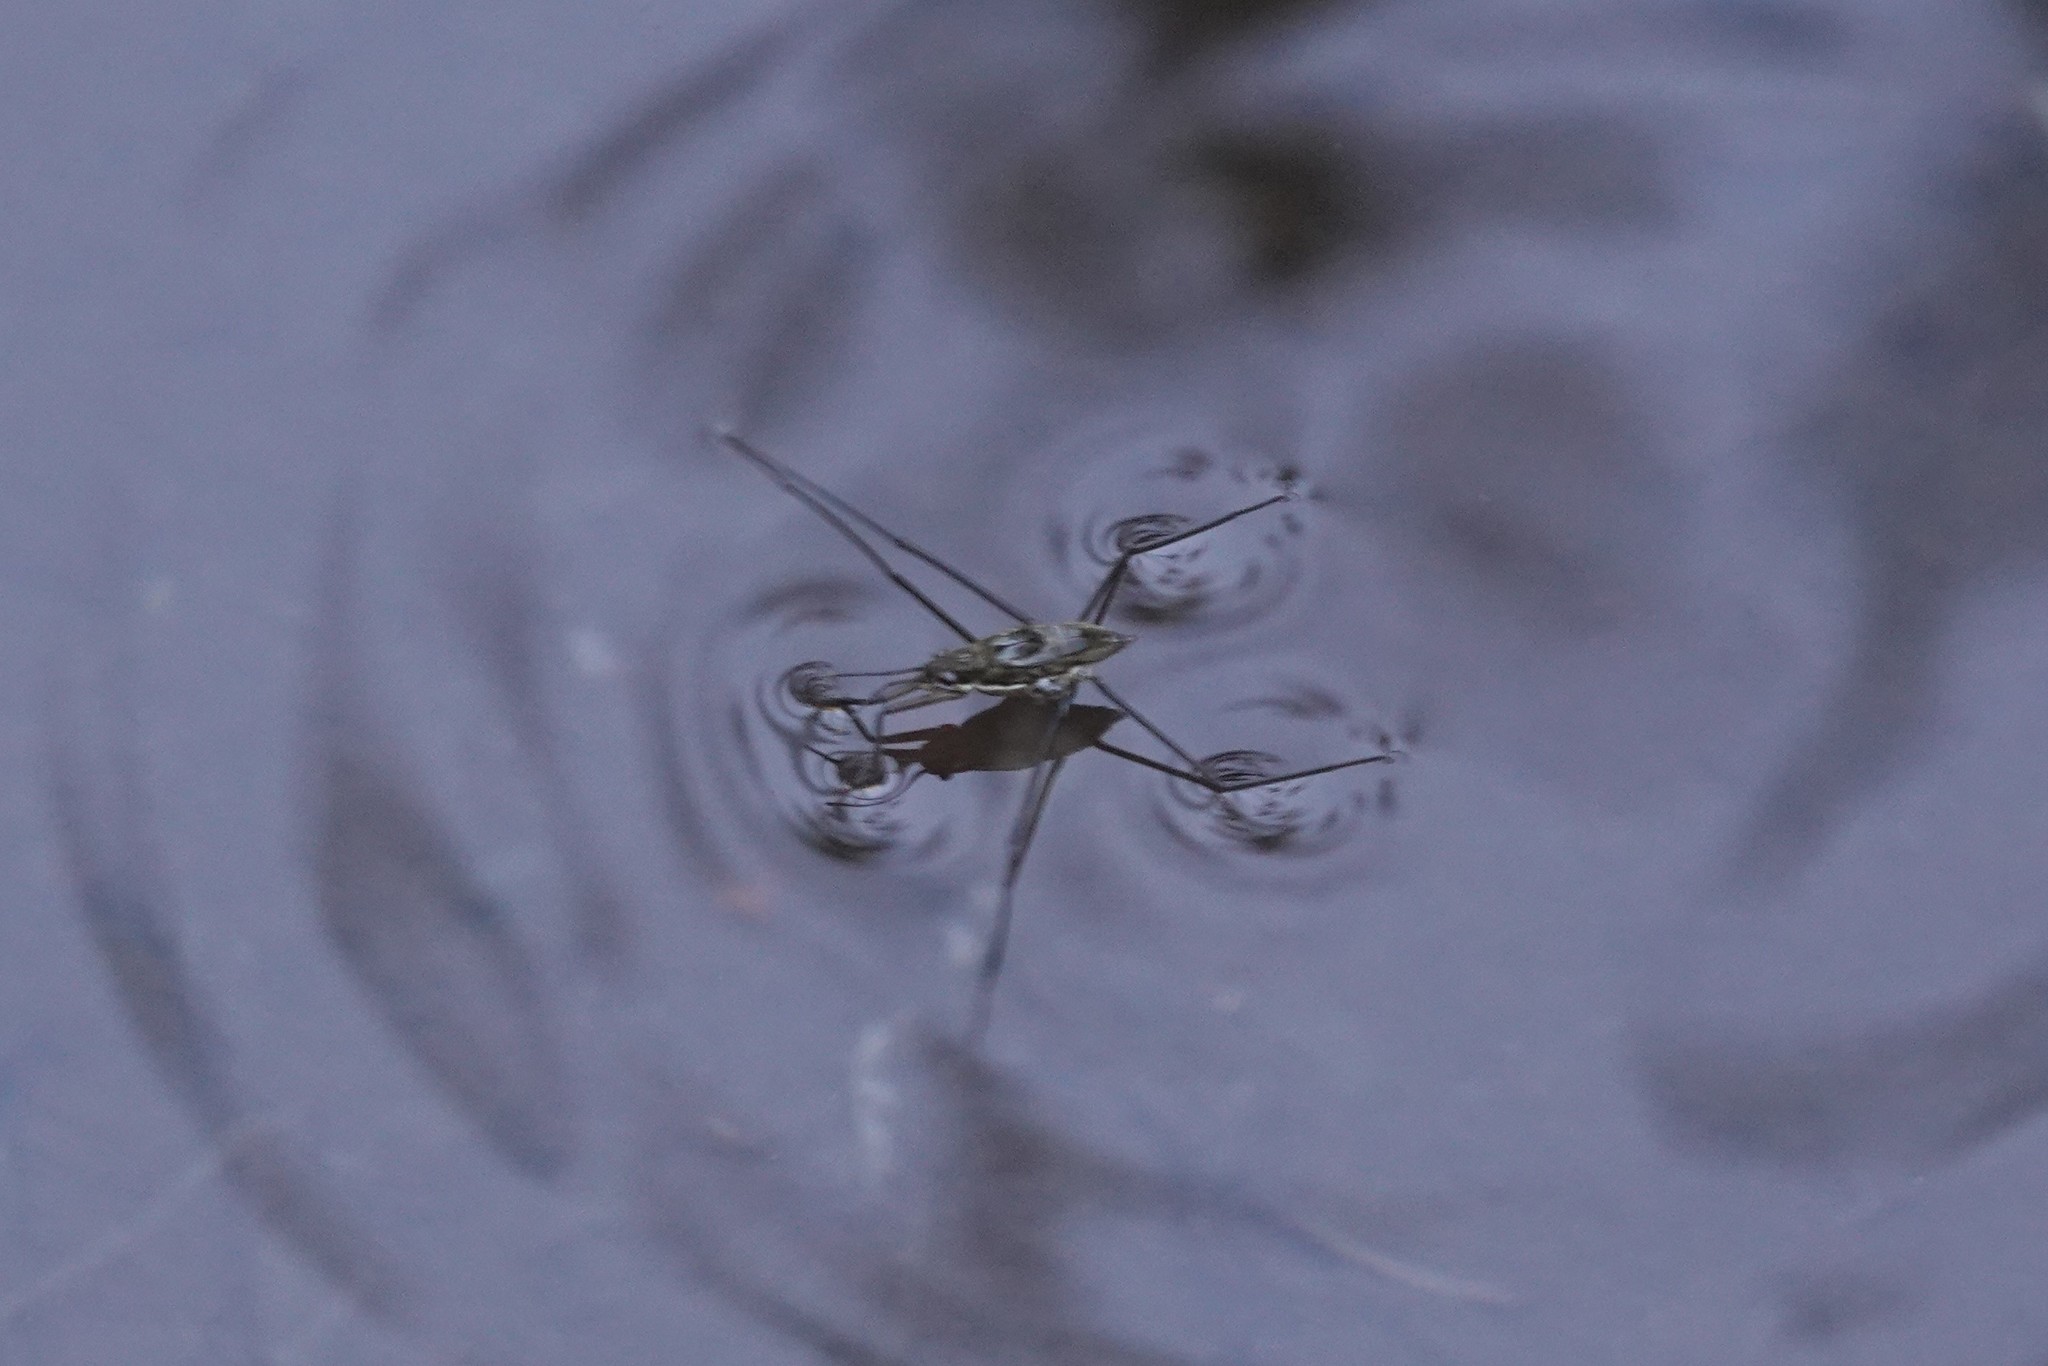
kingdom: Animalia
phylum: Arthropoda
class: Insecta
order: Hemiptera
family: Gerridae
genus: Aquarius
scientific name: Aquarius remigis
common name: Common water strider
